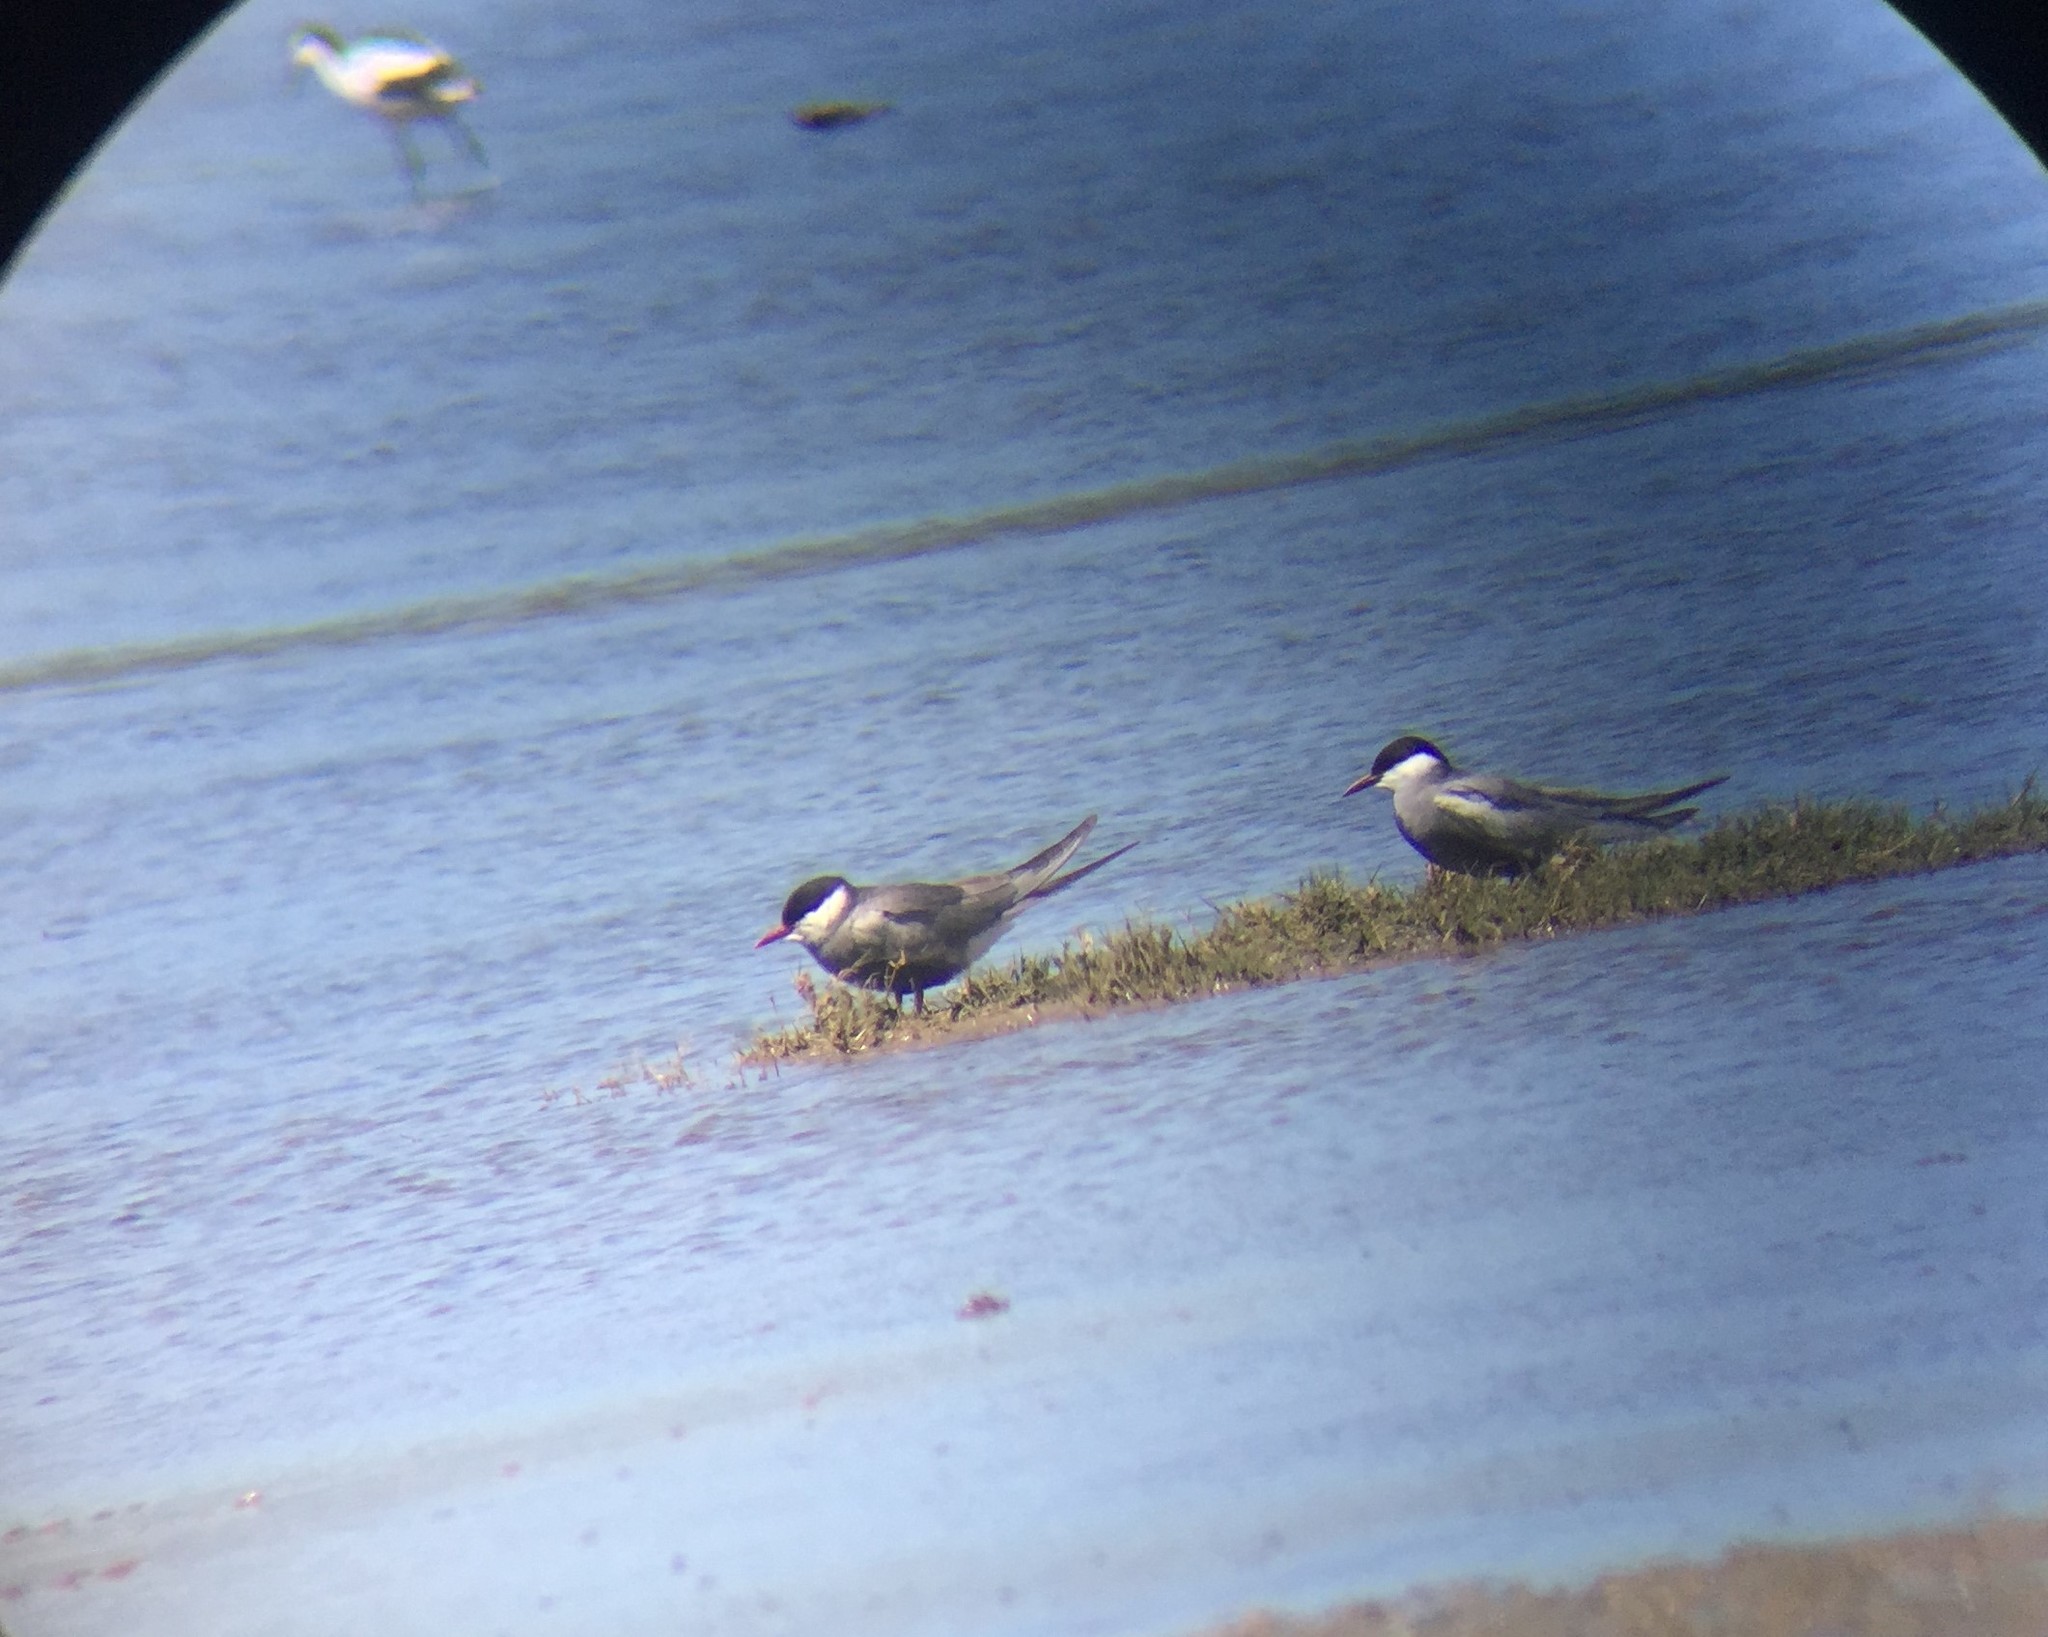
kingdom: Animalia
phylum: Chordata
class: Aves
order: Charadriiformes
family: Laridae
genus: Chlidonias
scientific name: Chlidonias hybrida
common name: Whiskered tern
